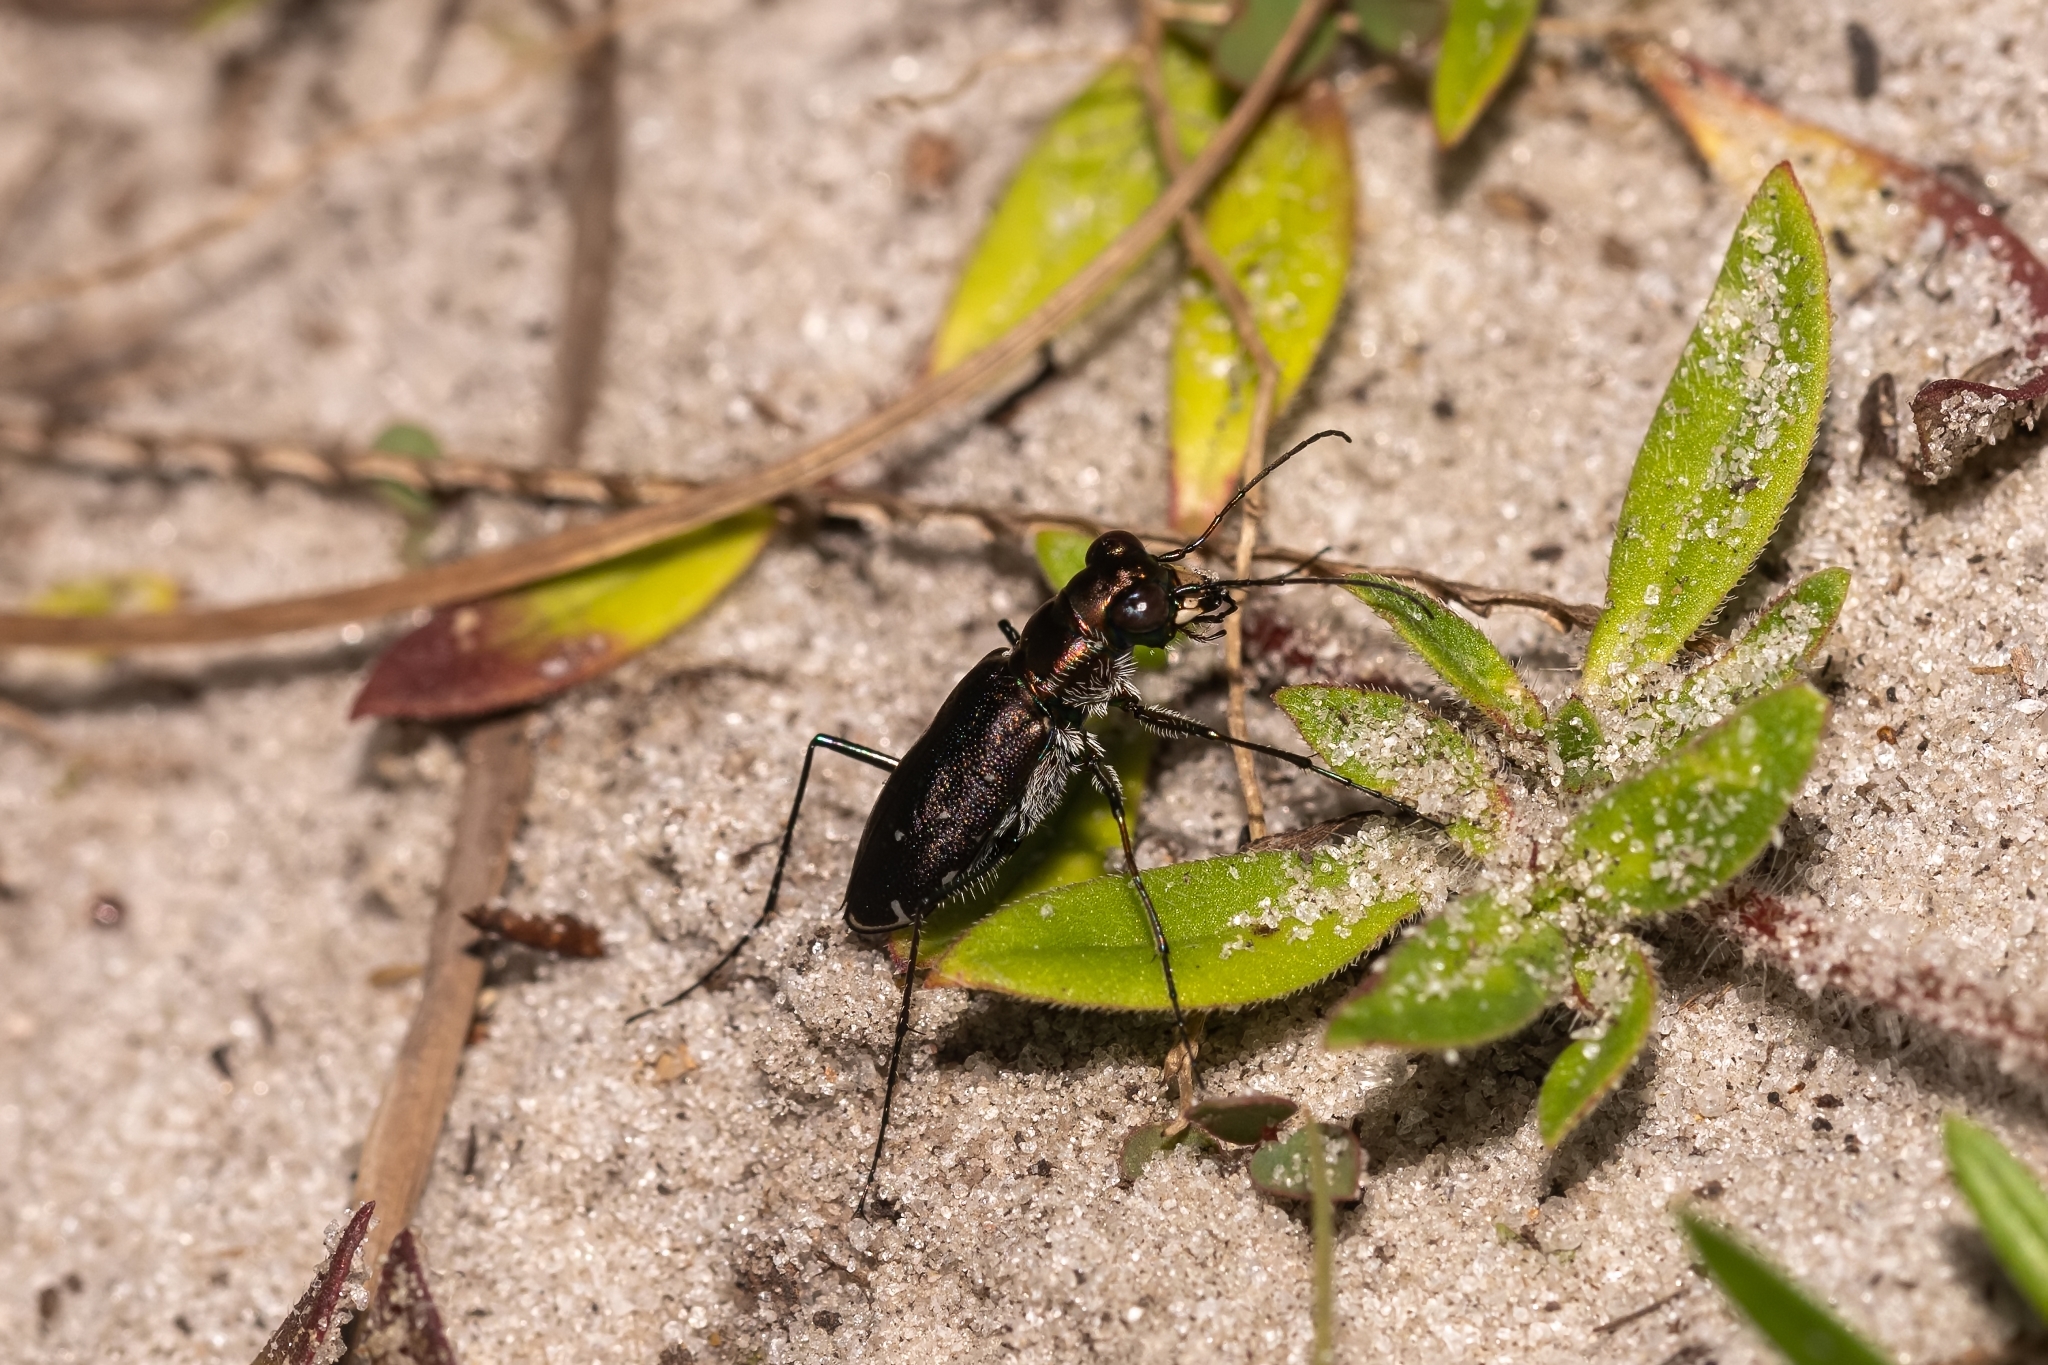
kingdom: Animalia
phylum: Arthropoda
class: Insecta
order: Coleoptera
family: Carabidae
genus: Cicindela
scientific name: Cicindela punctulata
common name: Punctured tiger beetle
